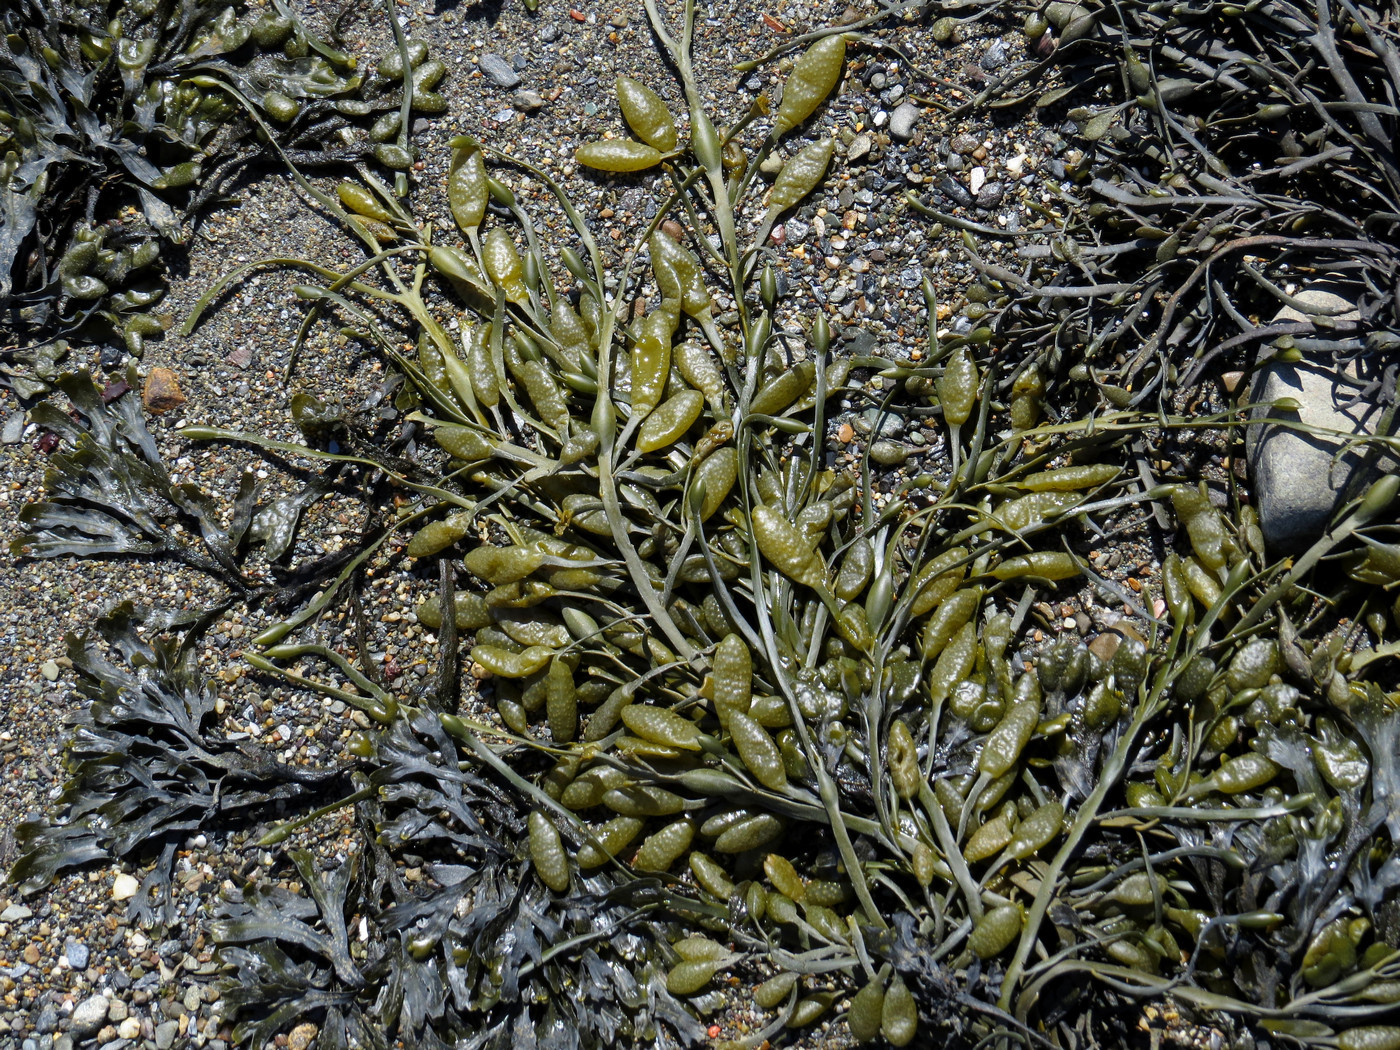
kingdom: Chromista
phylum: Ochrophyta
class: Phaeophyceae
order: Fucales
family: Fucaceae
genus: Ascophyllum
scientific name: Ascophyllum nodosum
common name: Knotted wrack
